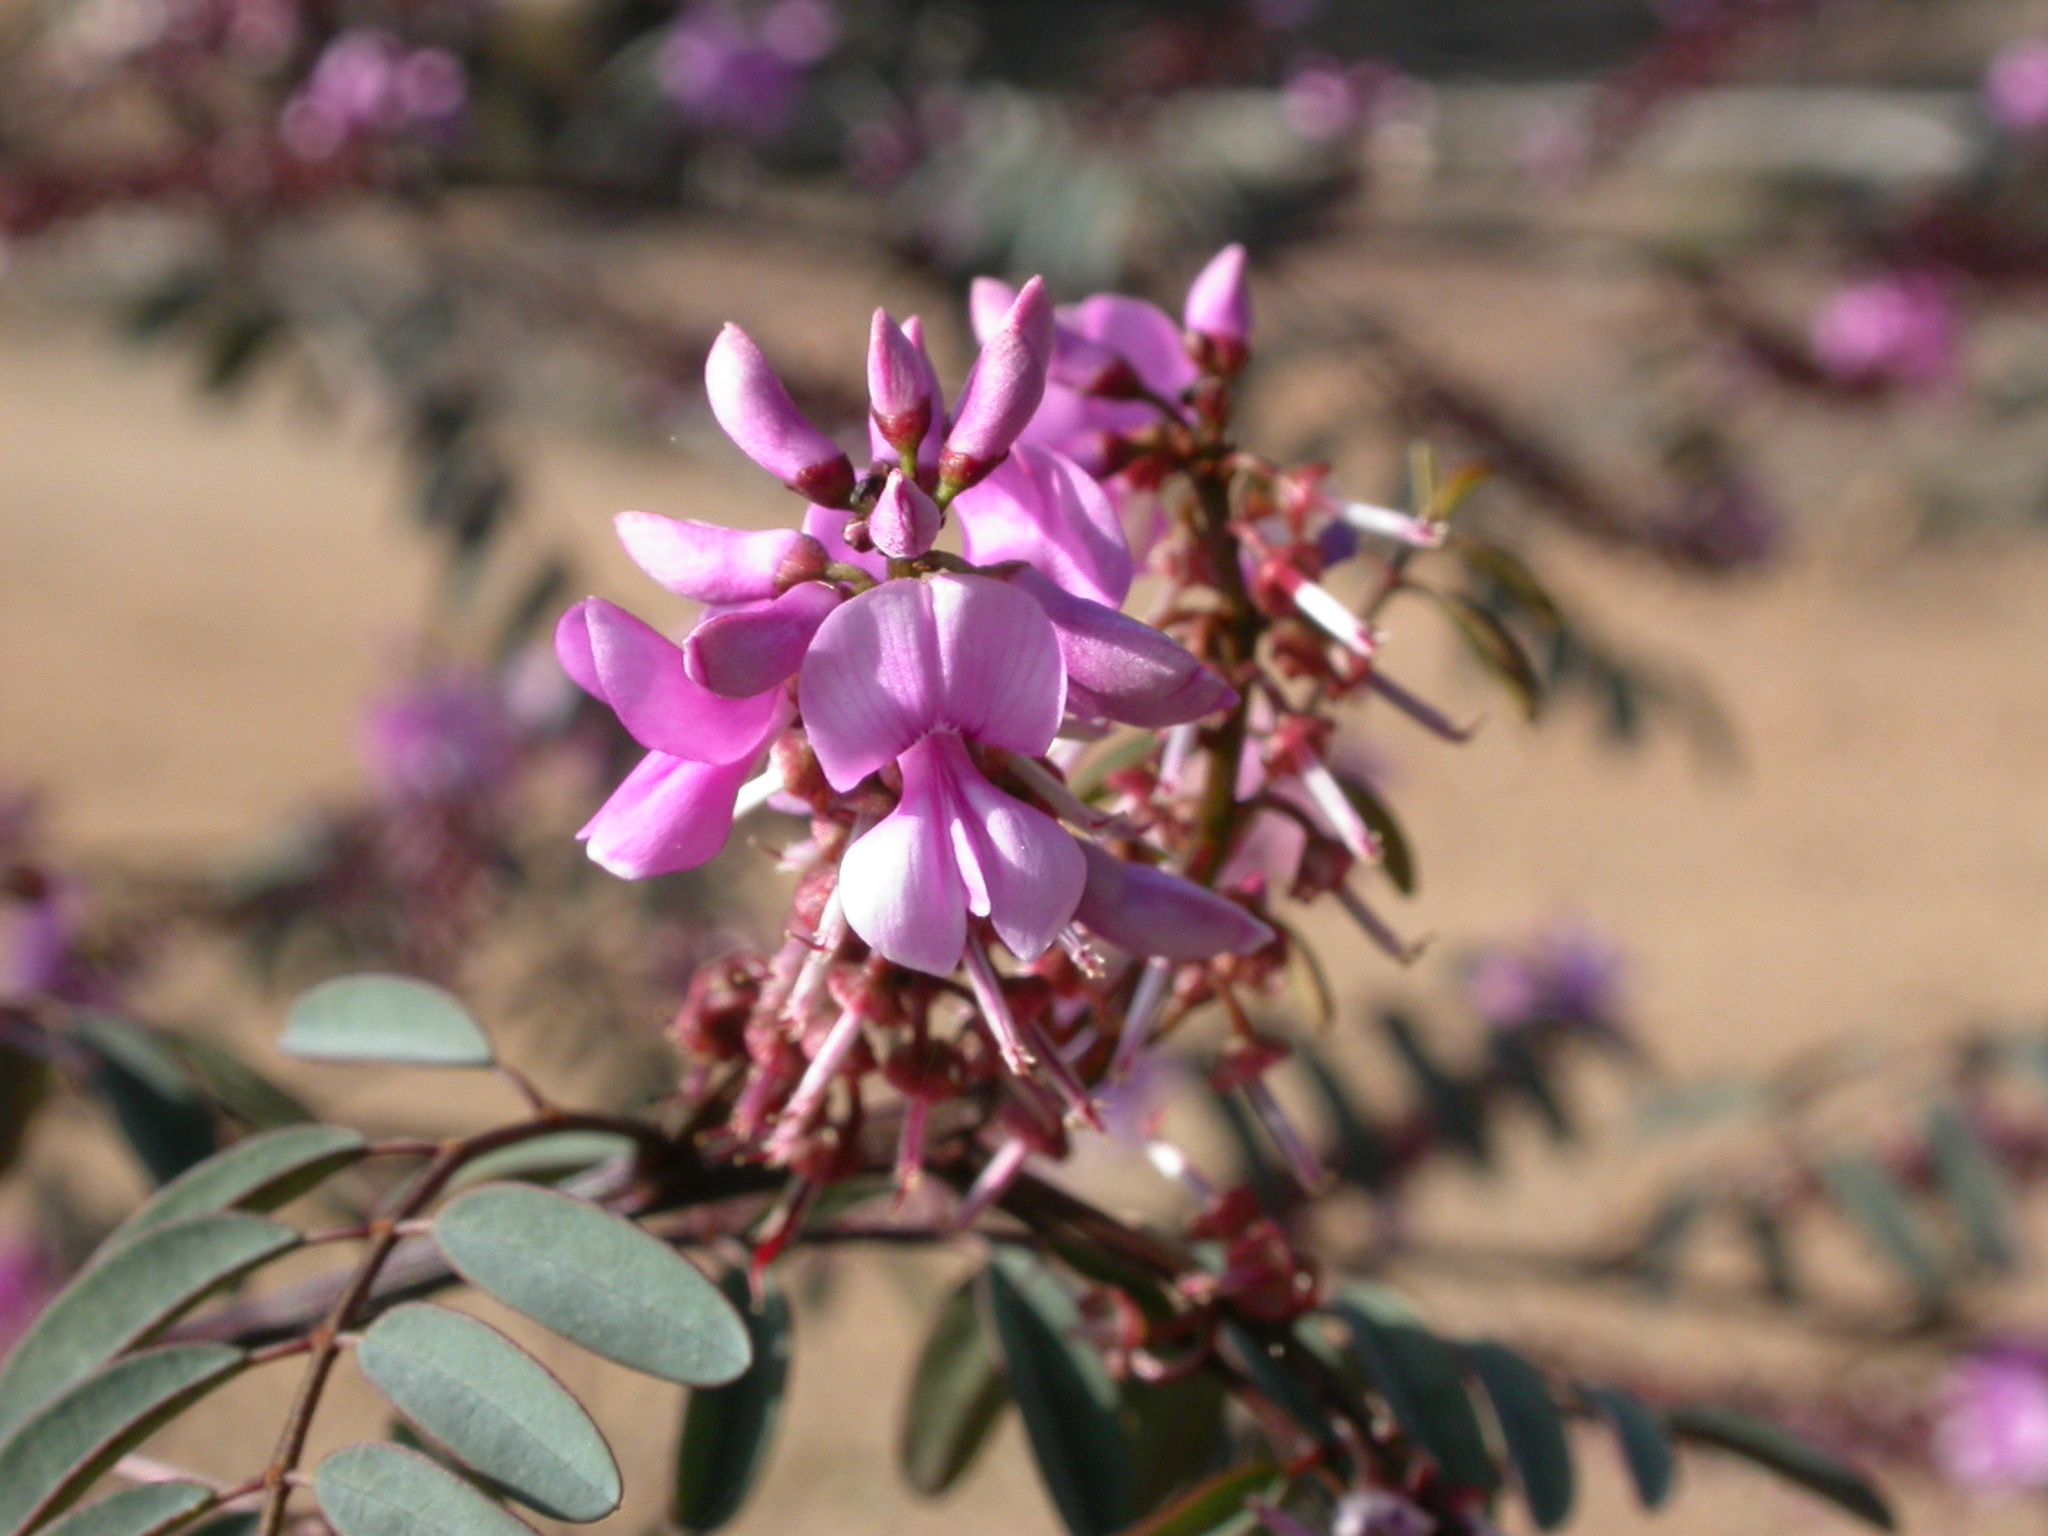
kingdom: Plantae
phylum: Tracheophyta
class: Magnoliopsida
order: Fabales
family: Fabaceae
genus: Indigofera
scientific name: Indigofera australis
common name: Australian indigo
